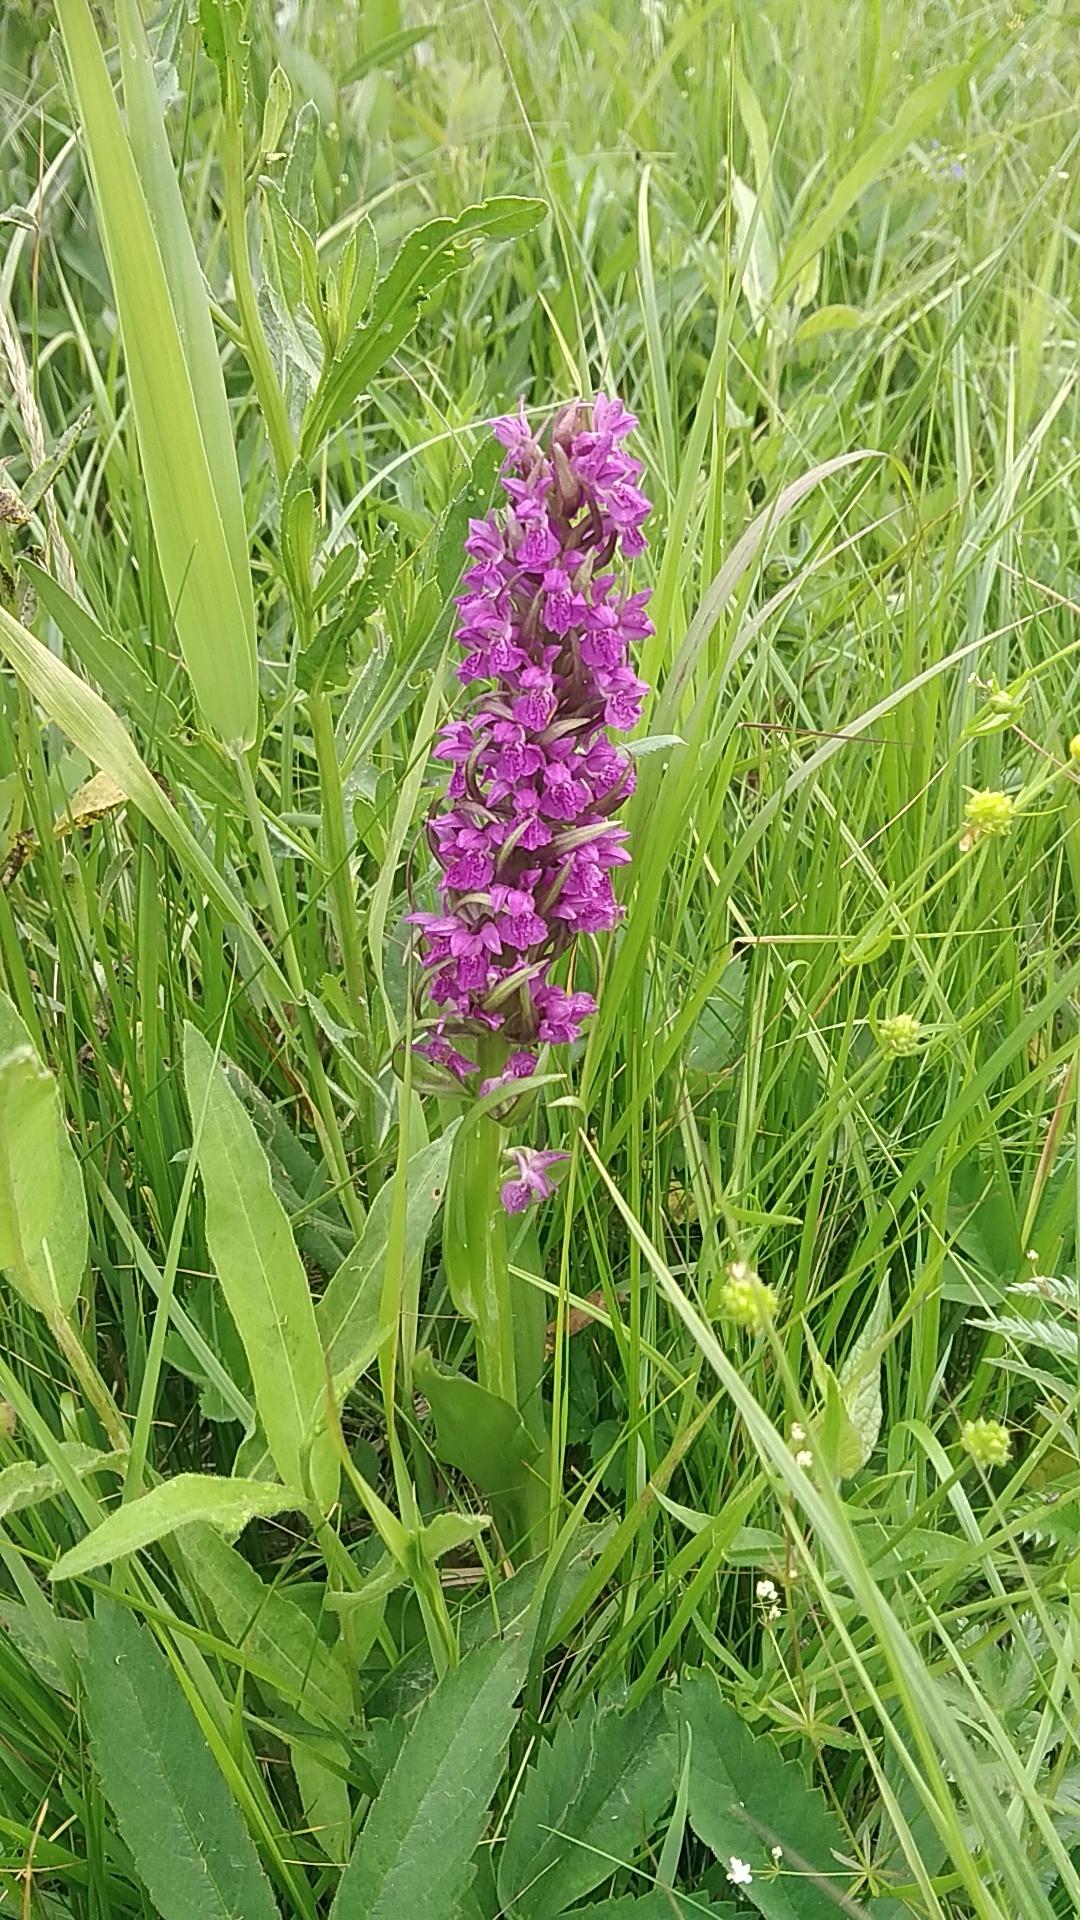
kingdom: Plantae
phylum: Tracheophyta
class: Liliopsida
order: Asparagales
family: Orchidaceae
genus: Dactylorhiza
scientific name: Dactylorhiza incarnata
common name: Early marsh-orchid
